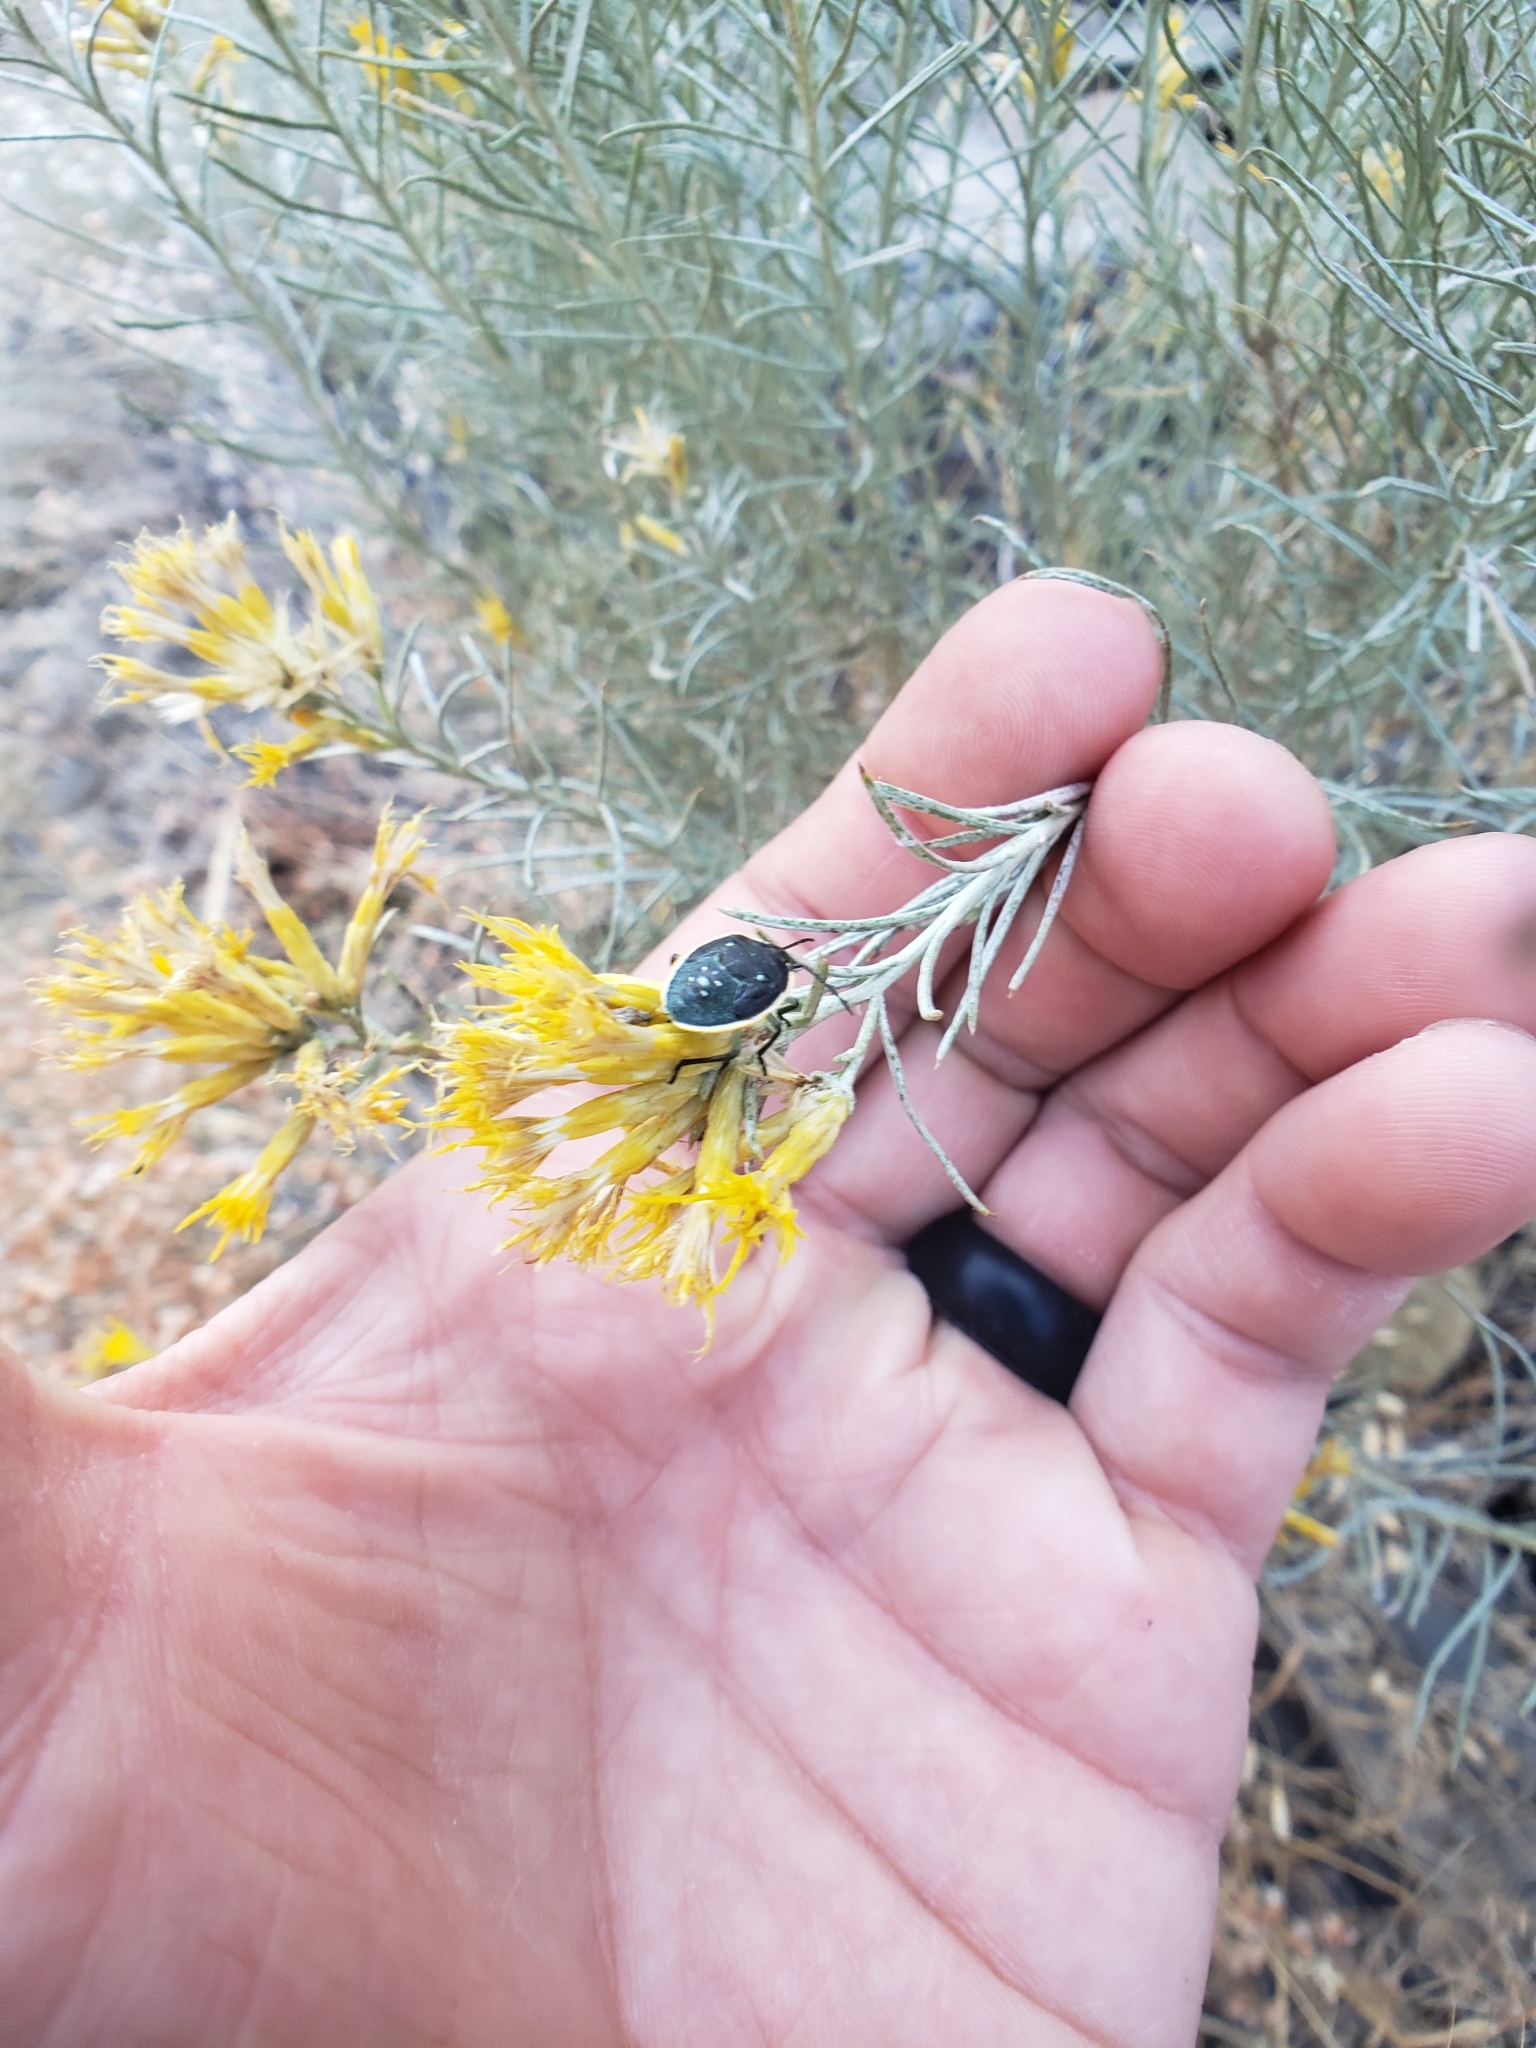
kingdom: Animalia
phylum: Arthropoda
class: Insecta
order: Hemiptera
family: Pentatomidae
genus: Chlorochroa
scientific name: Chlorochroa ligata
